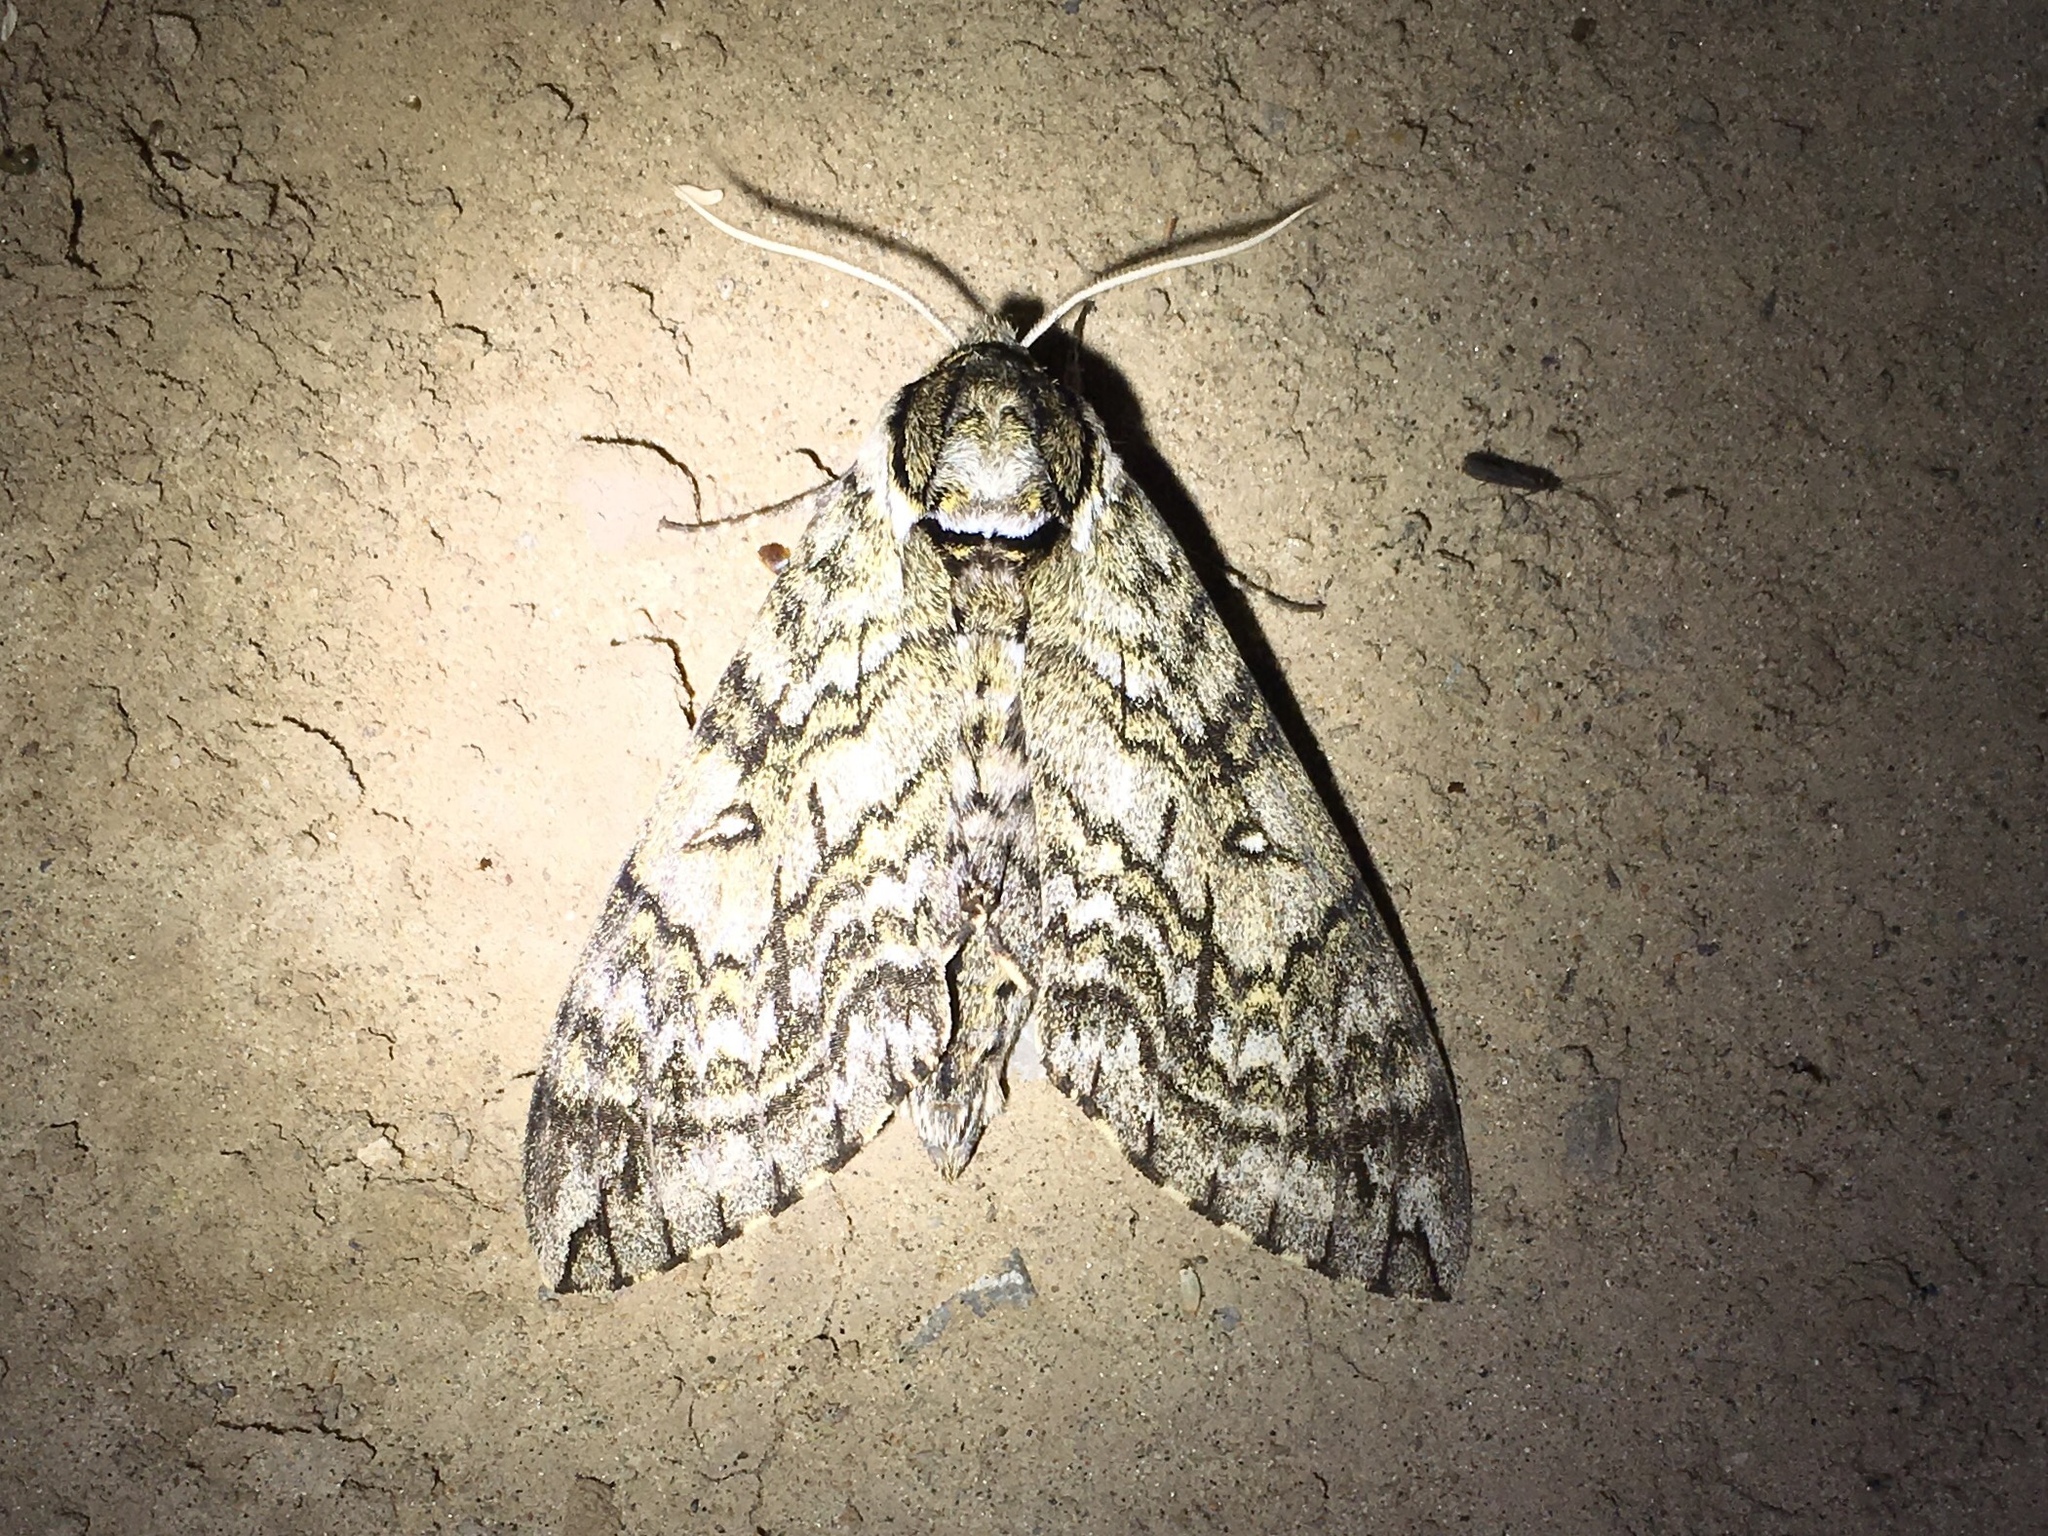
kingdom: Animalia
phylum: Arthropoda
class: Insecta
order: Lepidoptera
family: Sphingidae
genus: Ceratomia
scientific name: Ceratomia undulosa
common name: Waved sphinx
